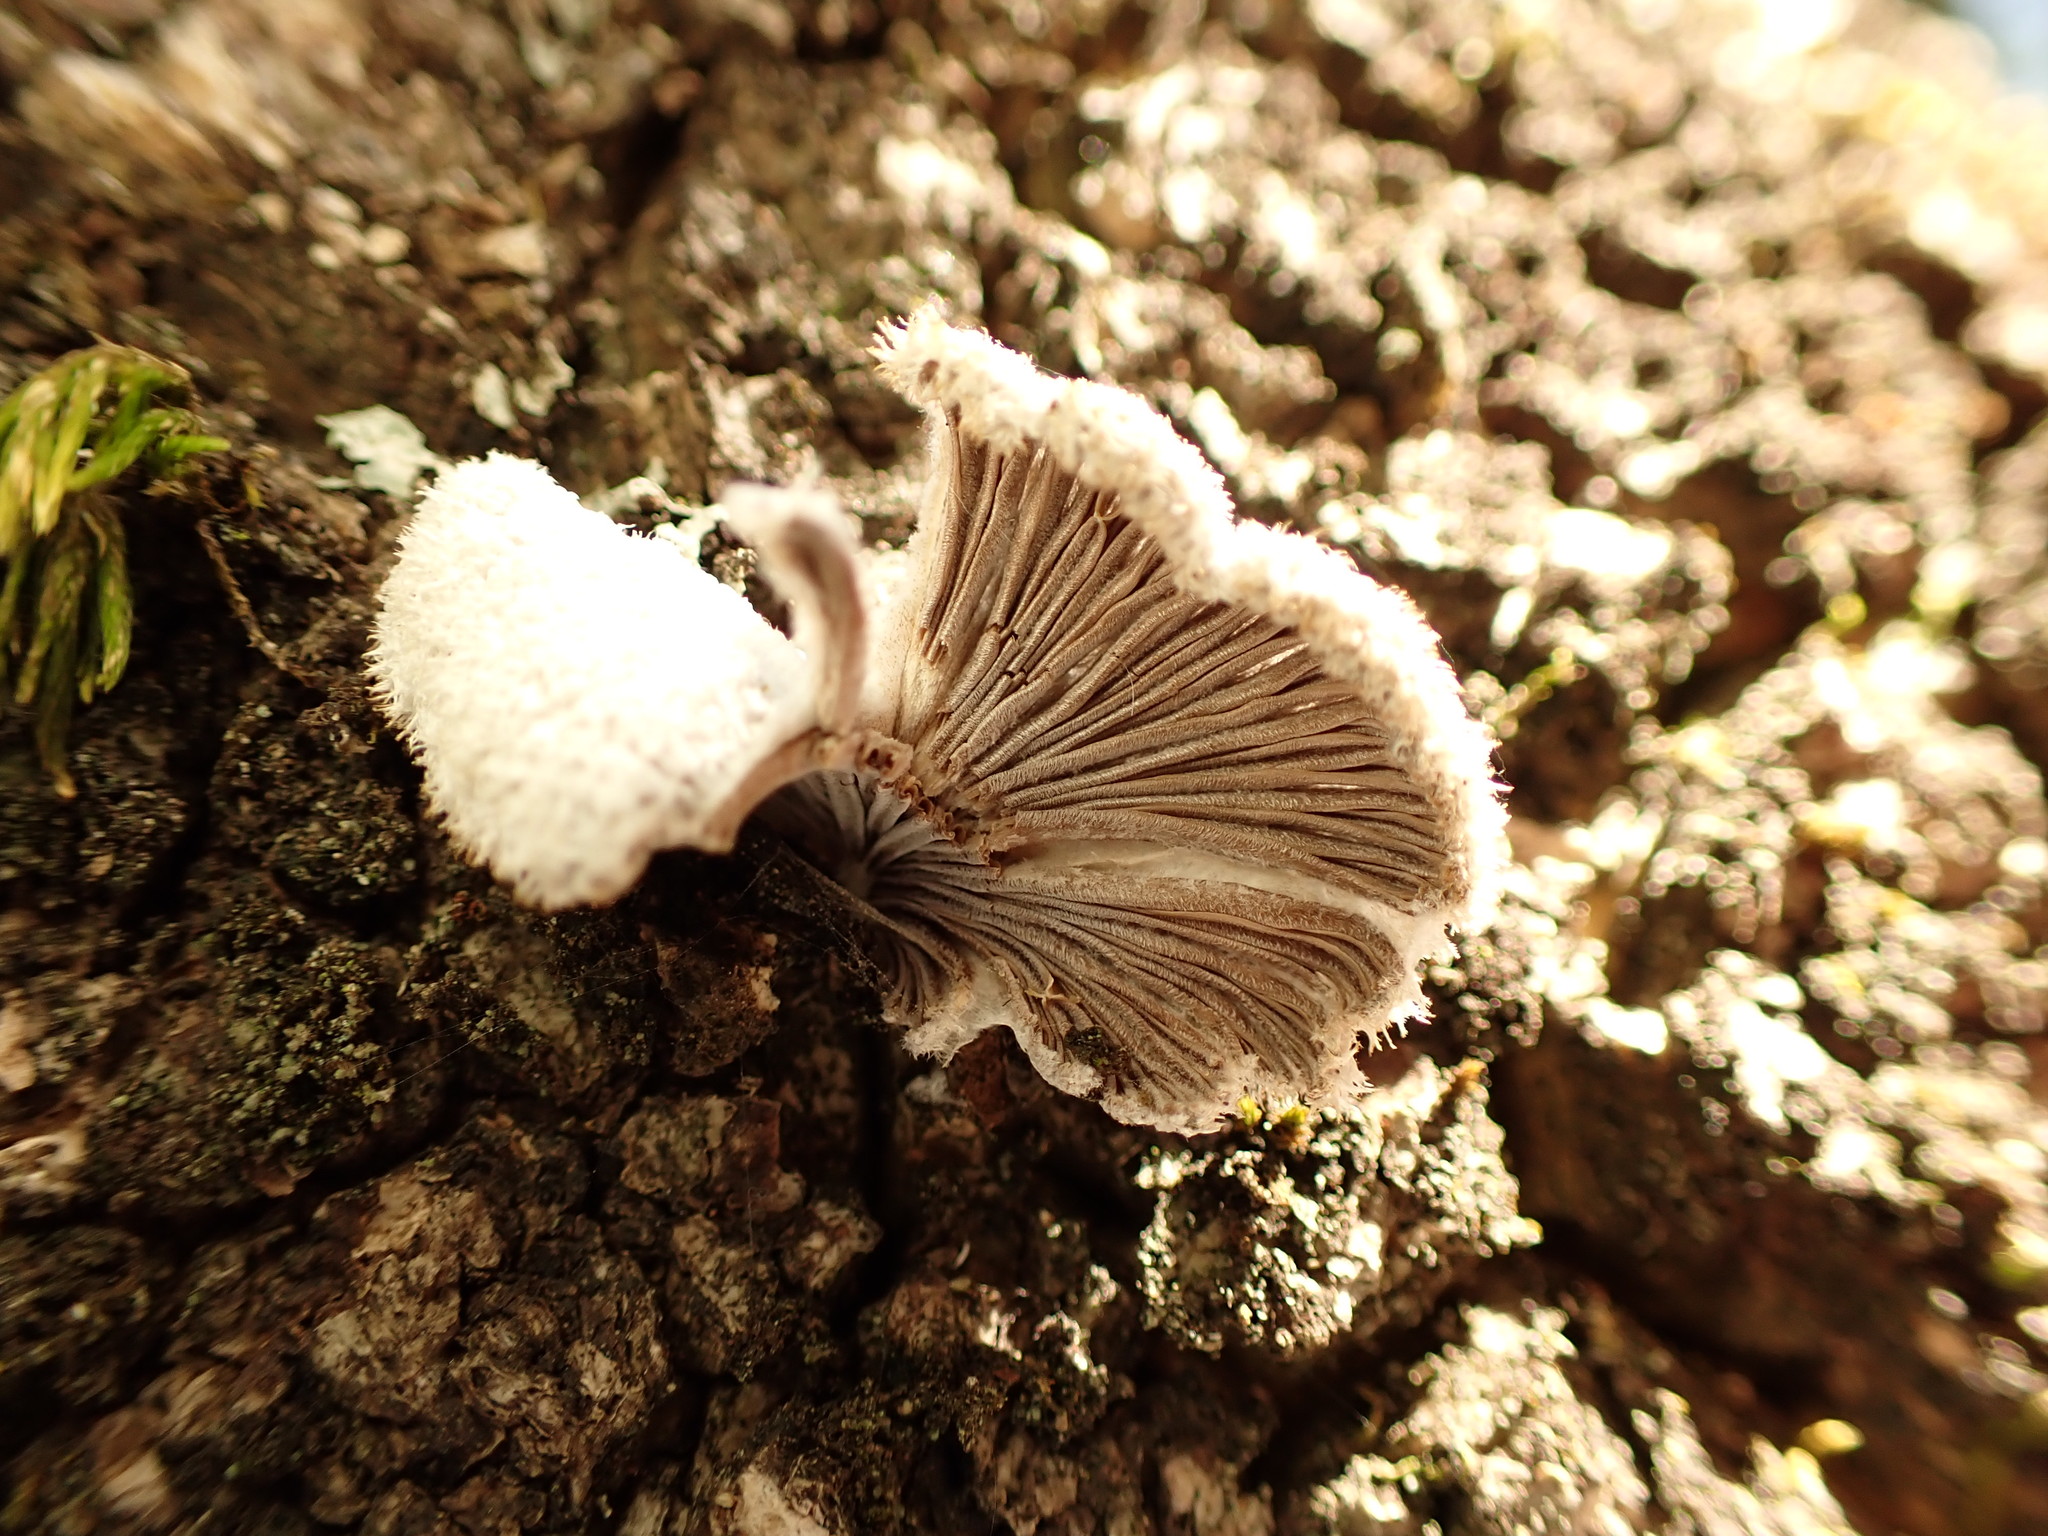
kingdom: Fungi
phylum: Basidiomycota
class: Agaricomycetes
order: Agaricales
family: Schizophyllaceae
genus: Schizophyllum
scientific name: Schizophyllum commune
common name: Common porecrust
